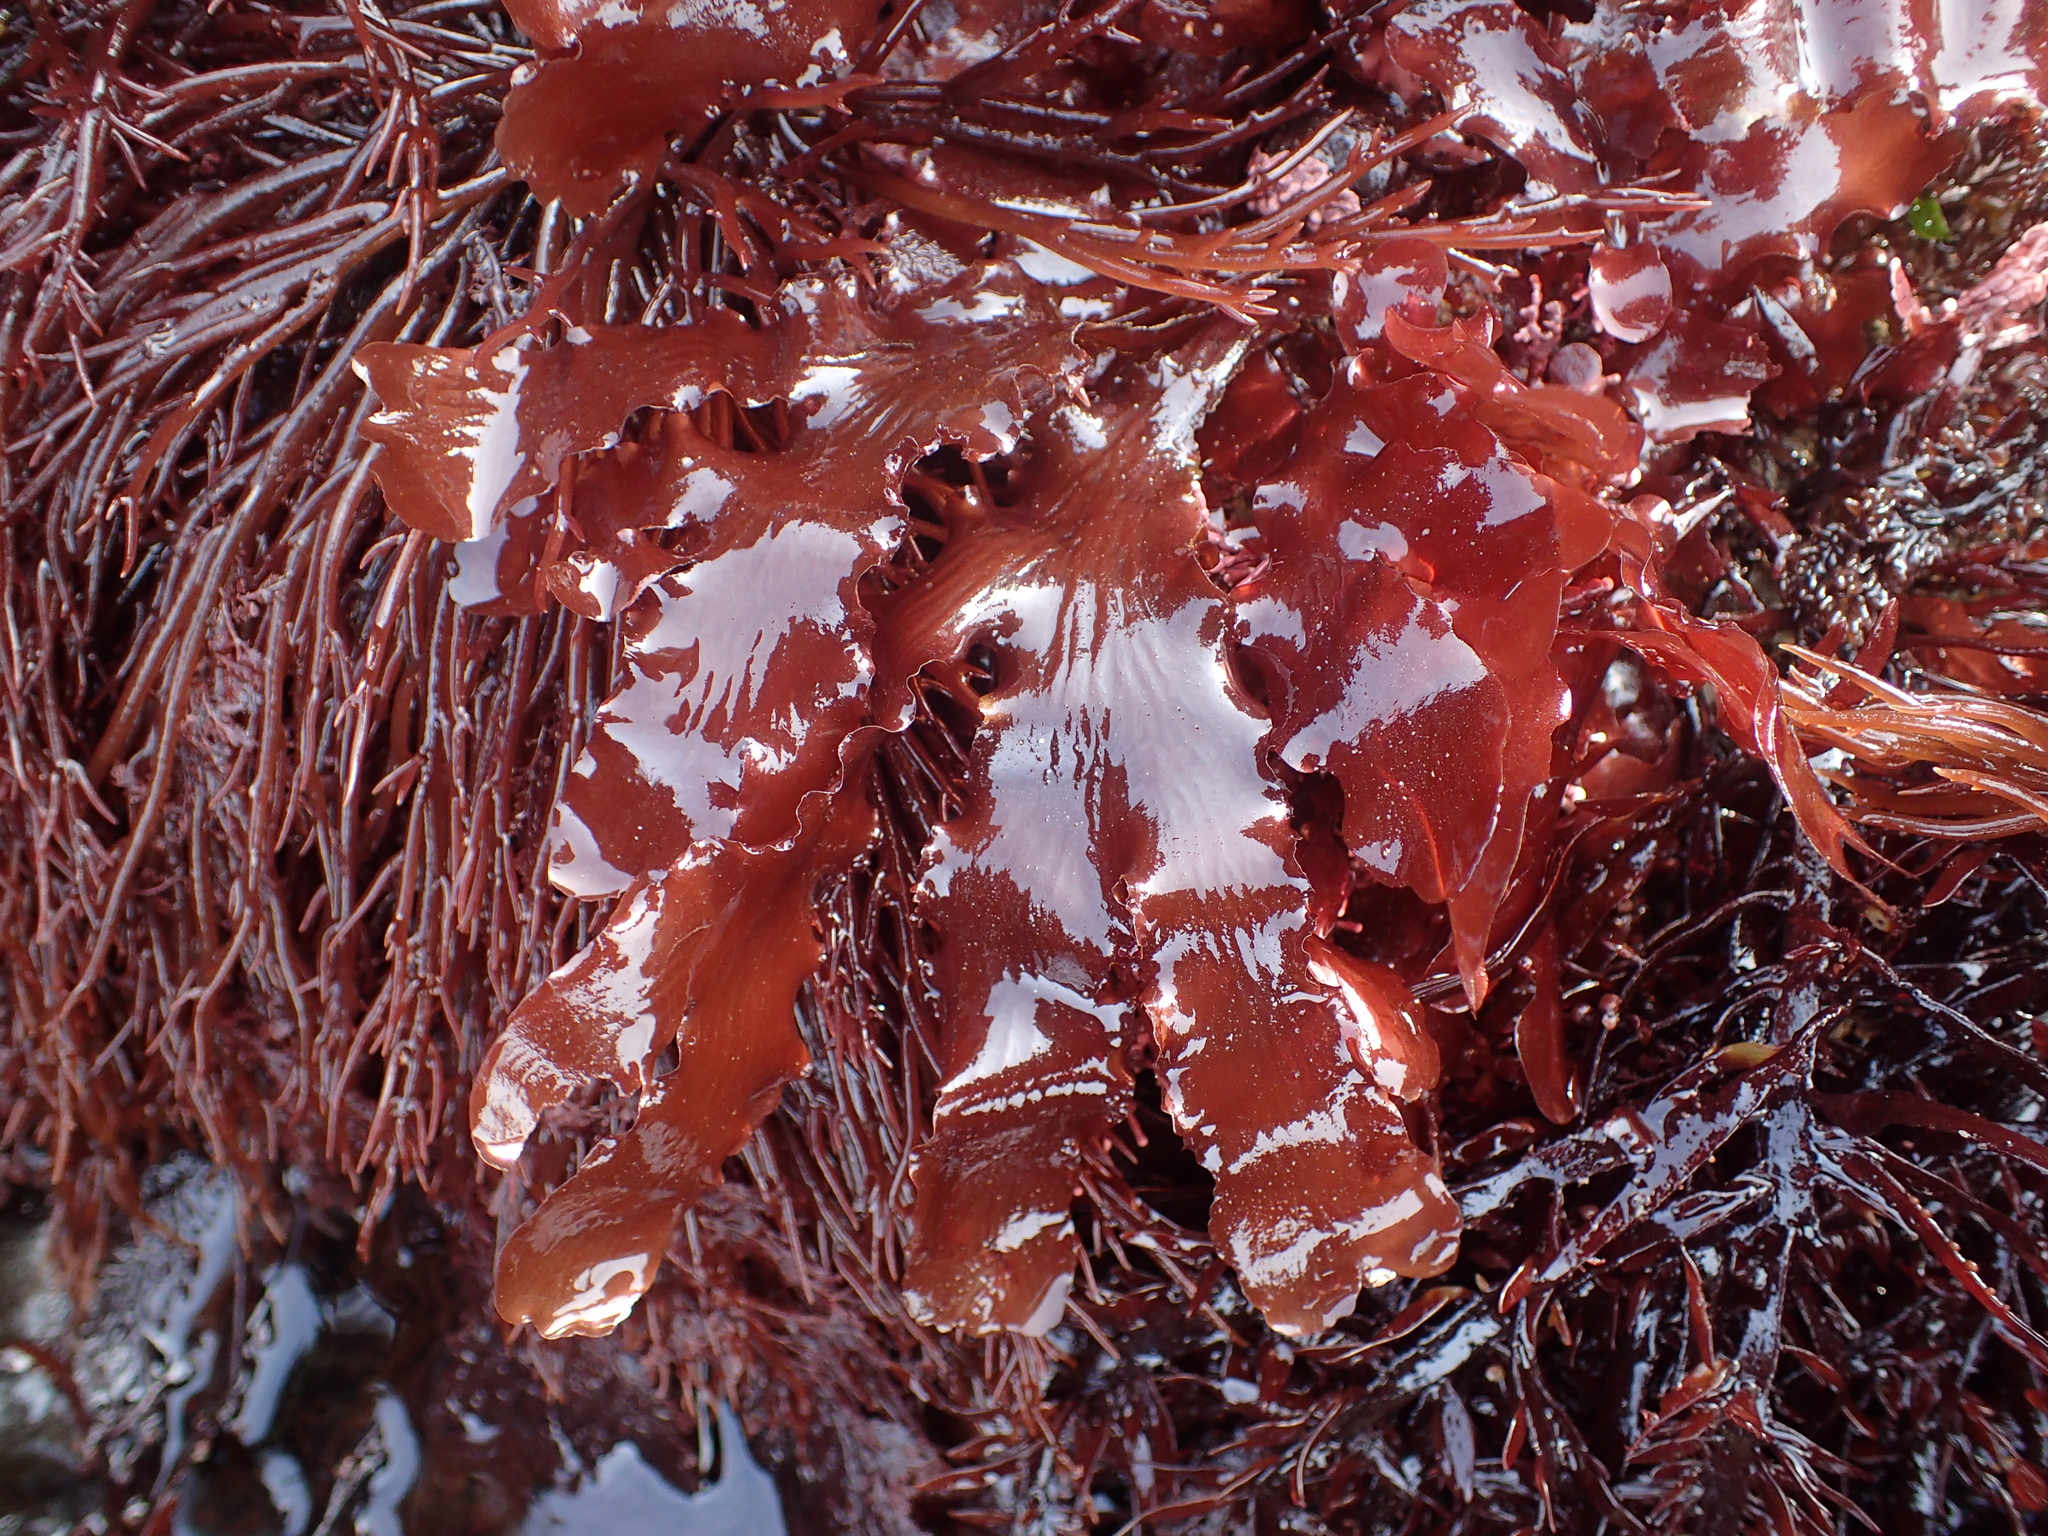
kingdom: Plantae
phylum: Rhodophyta
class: Florideophyceae
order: Ceramiales
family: Delesseriaceae
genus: Cryptopleura
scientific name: Cryptopleura ruprechtiana
